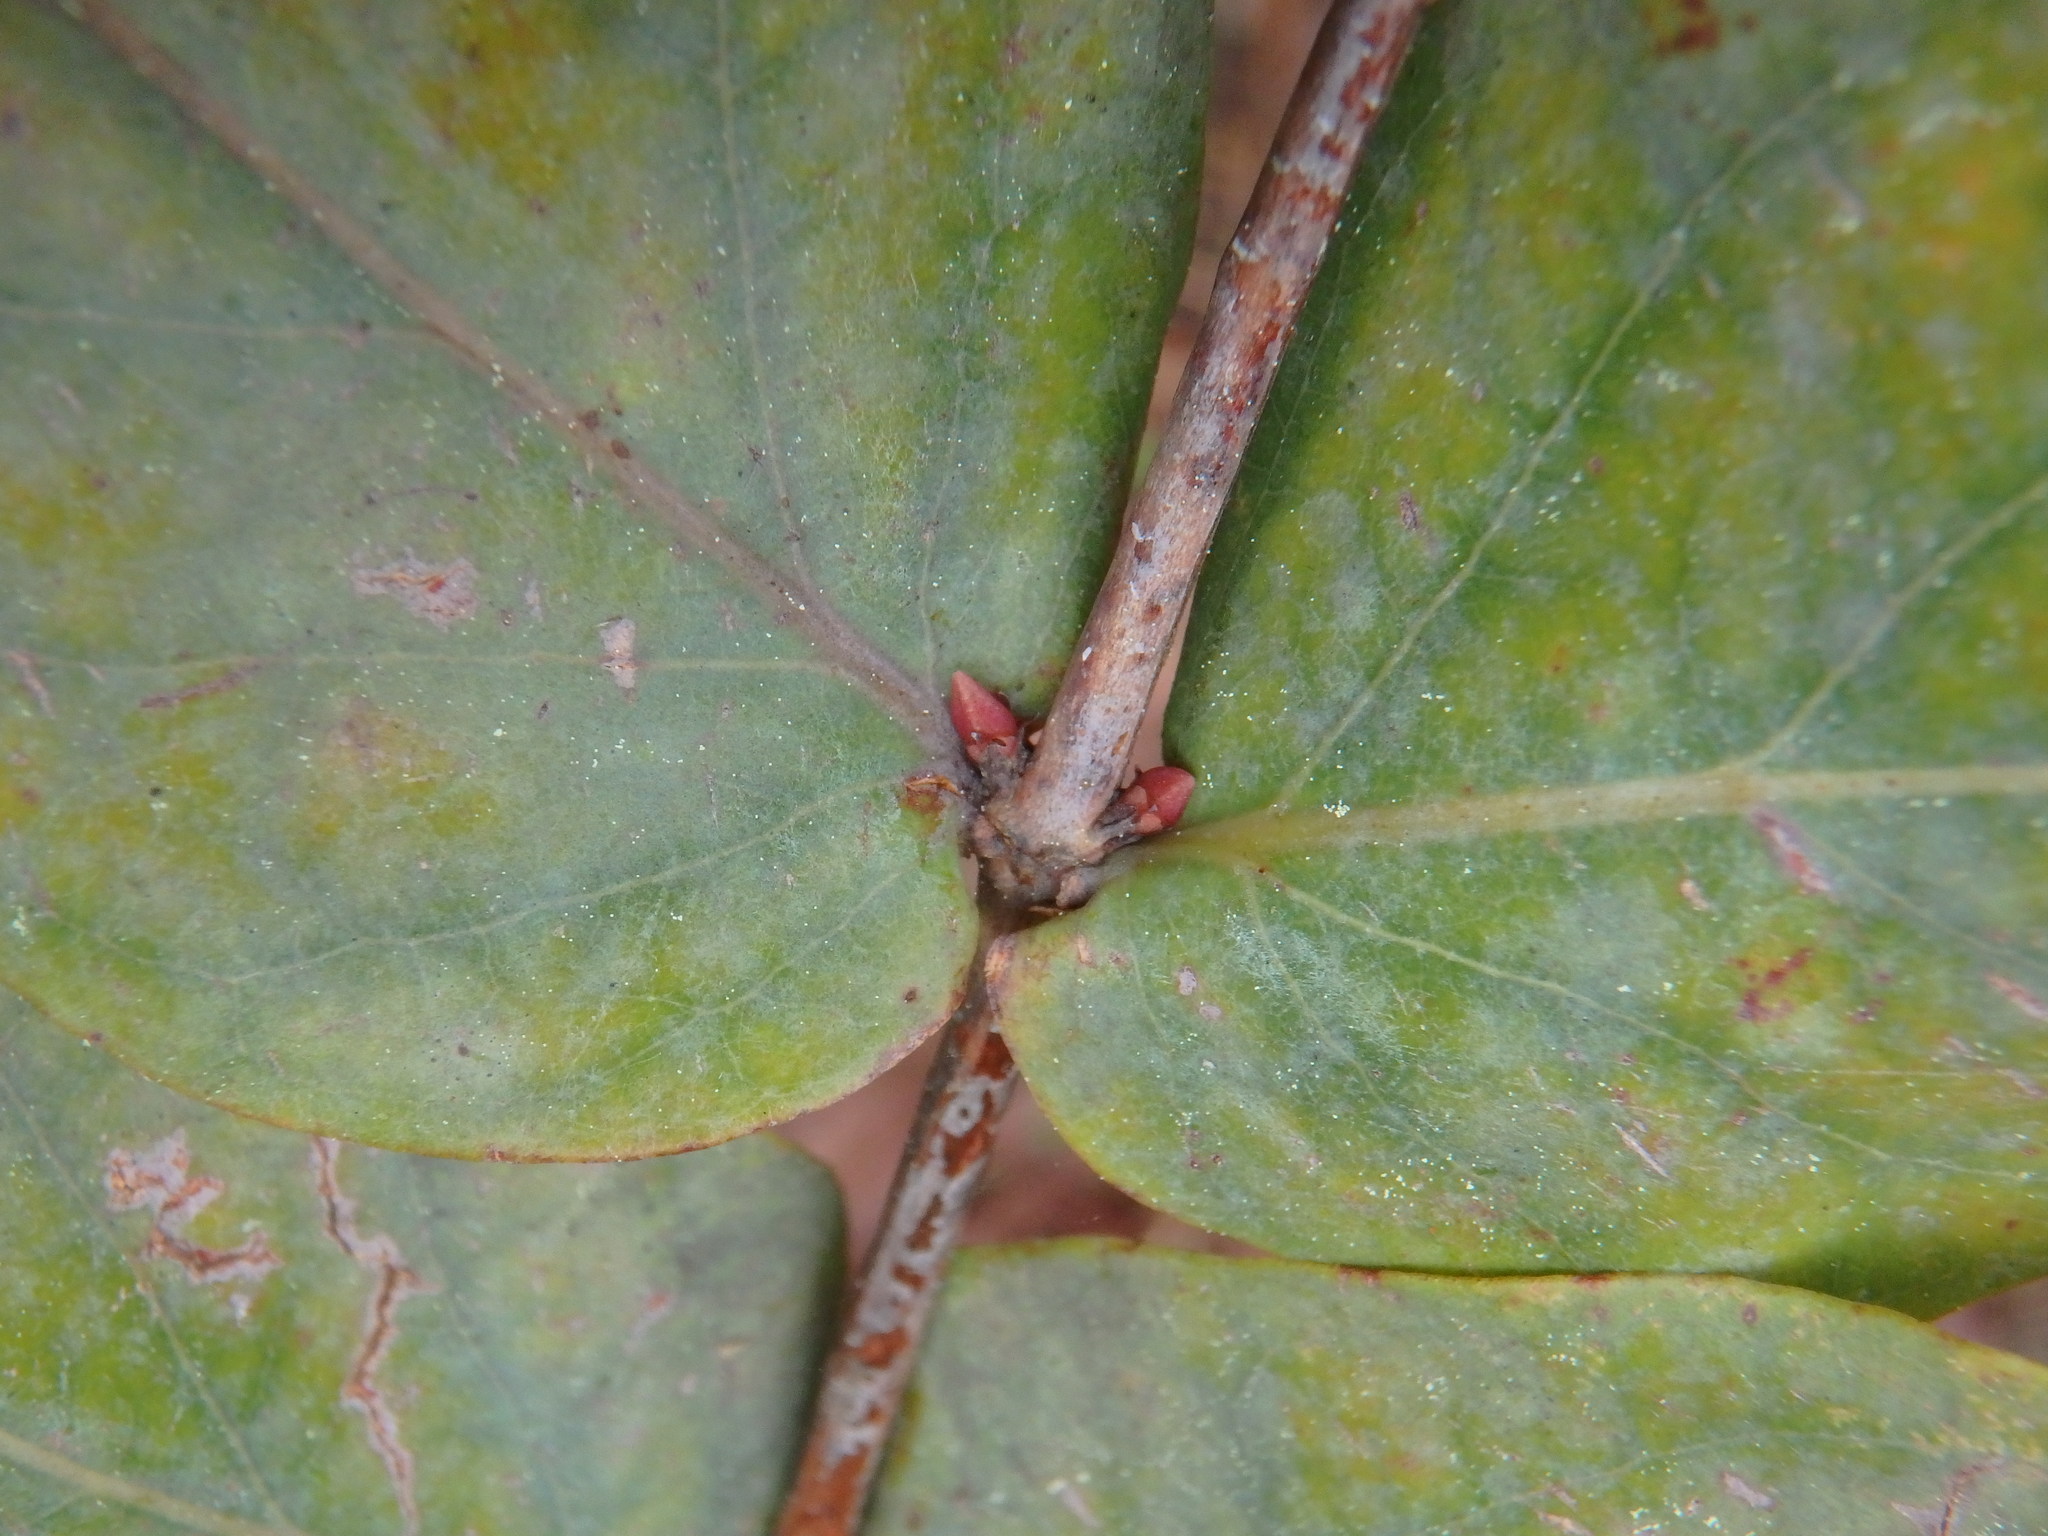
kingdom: Plantae
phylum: Tracheophyta
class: Magnoliopsida
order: Malpighiales
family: Hypericaceae
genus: Hypericum
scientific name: Hypericum grandifolium
